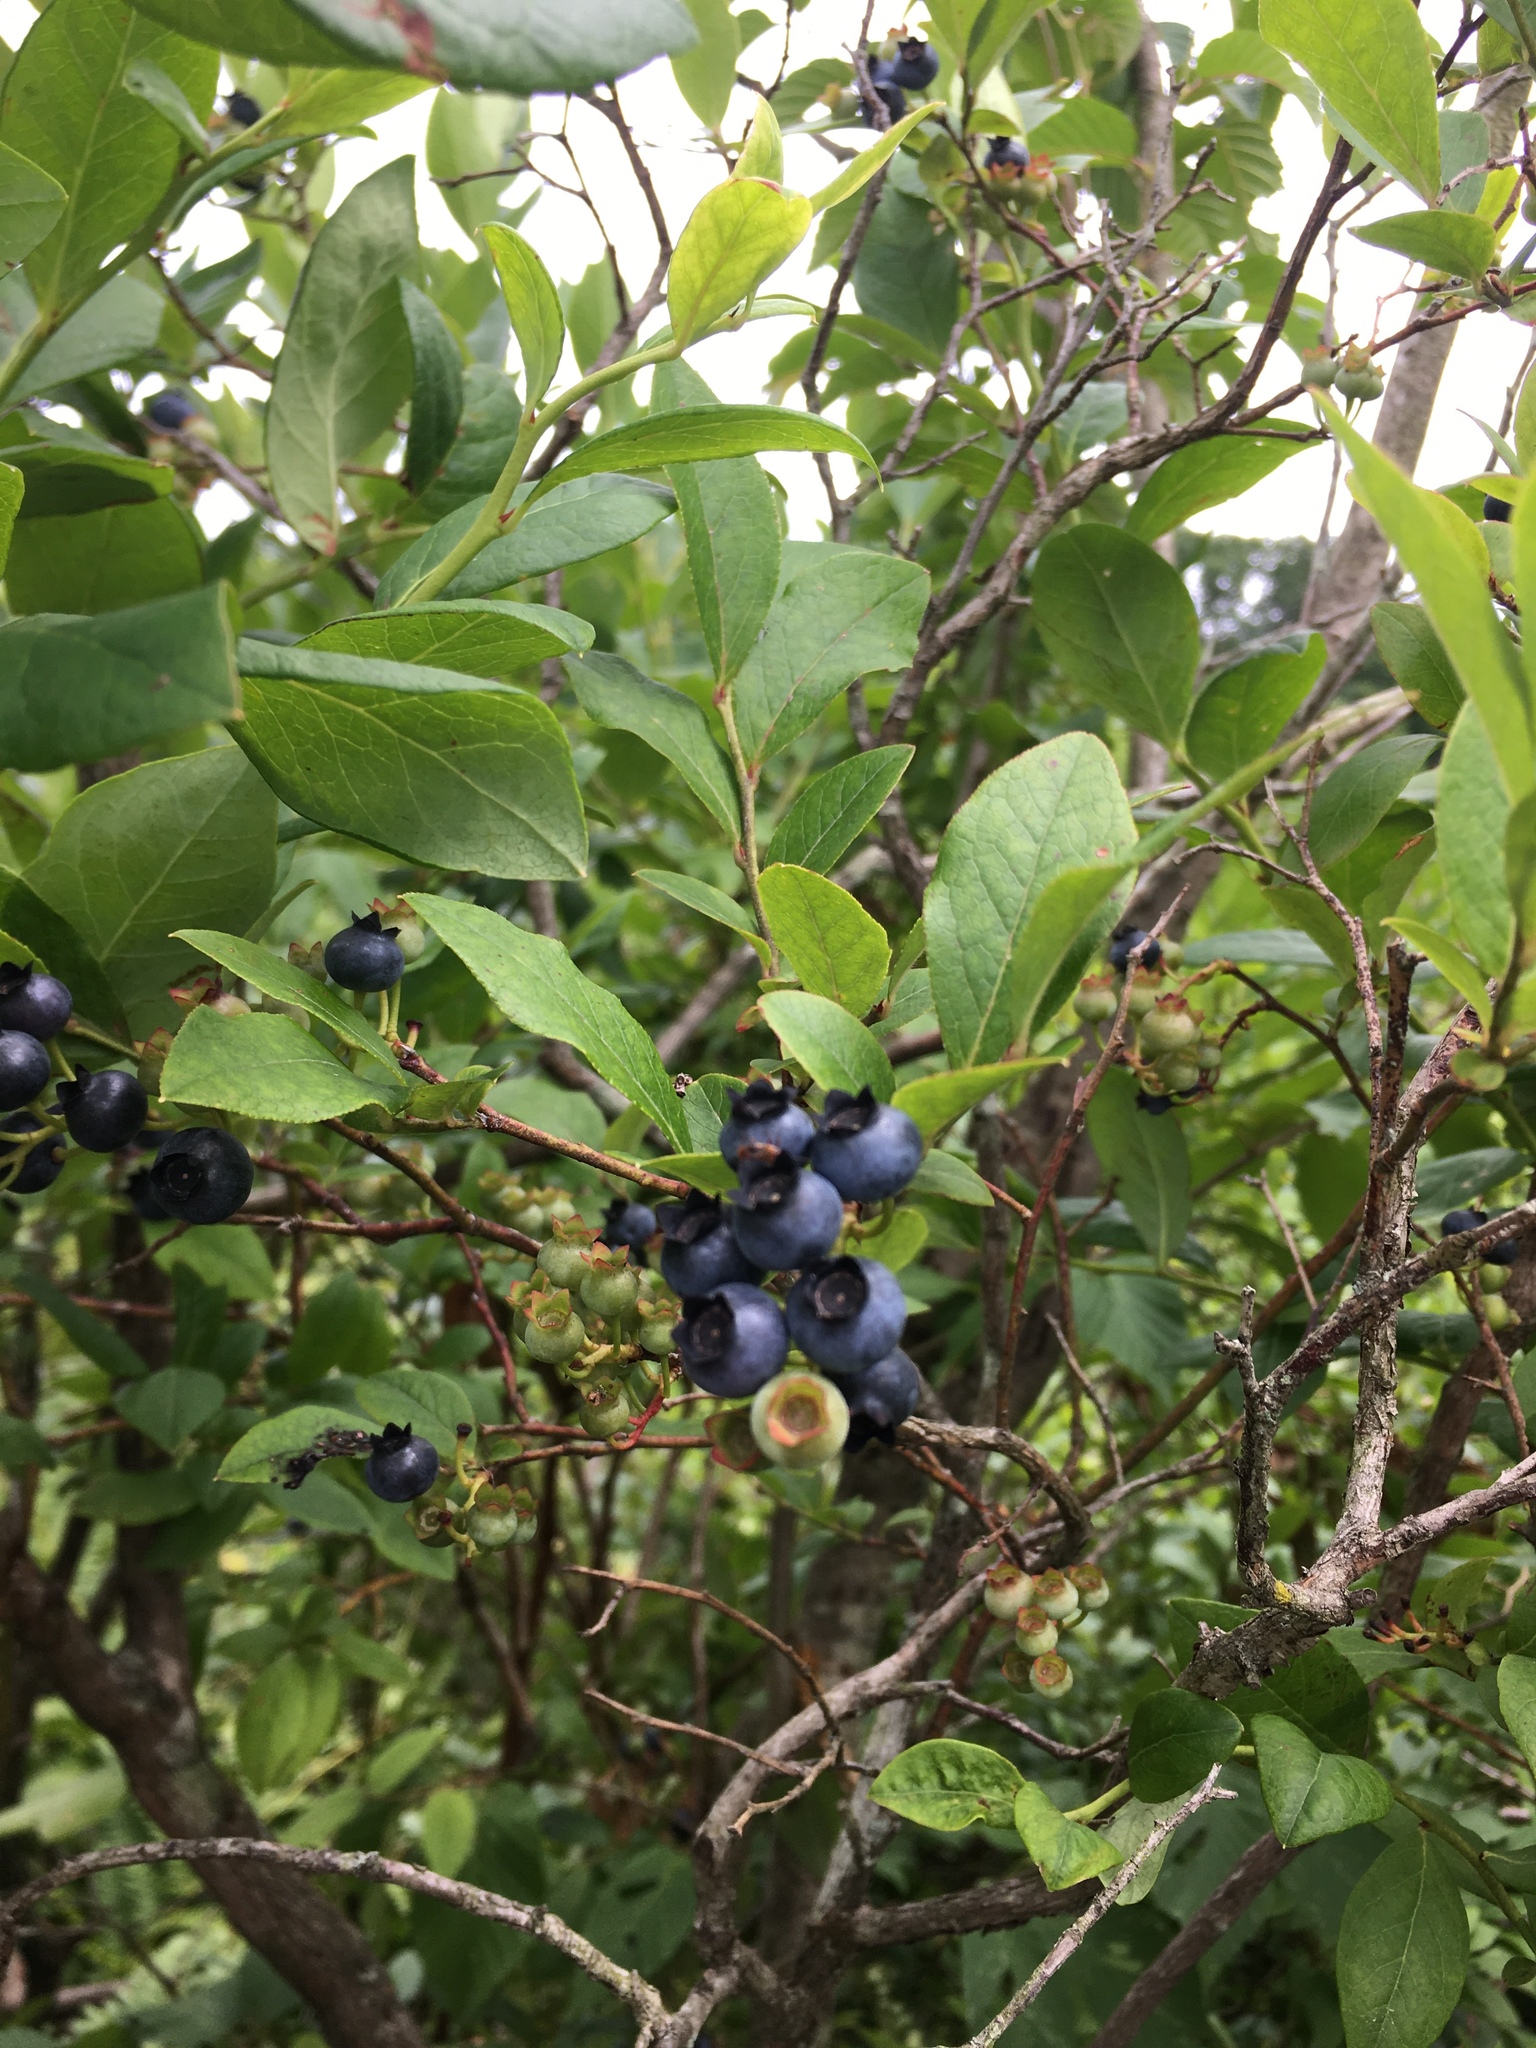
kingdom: Plantae
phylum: Tracheophyta
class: Magnoliopsida
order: Ericales
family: Ericaceae
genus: Vaccinium
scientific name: Vaccinium corymbosum
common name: Blueberry
